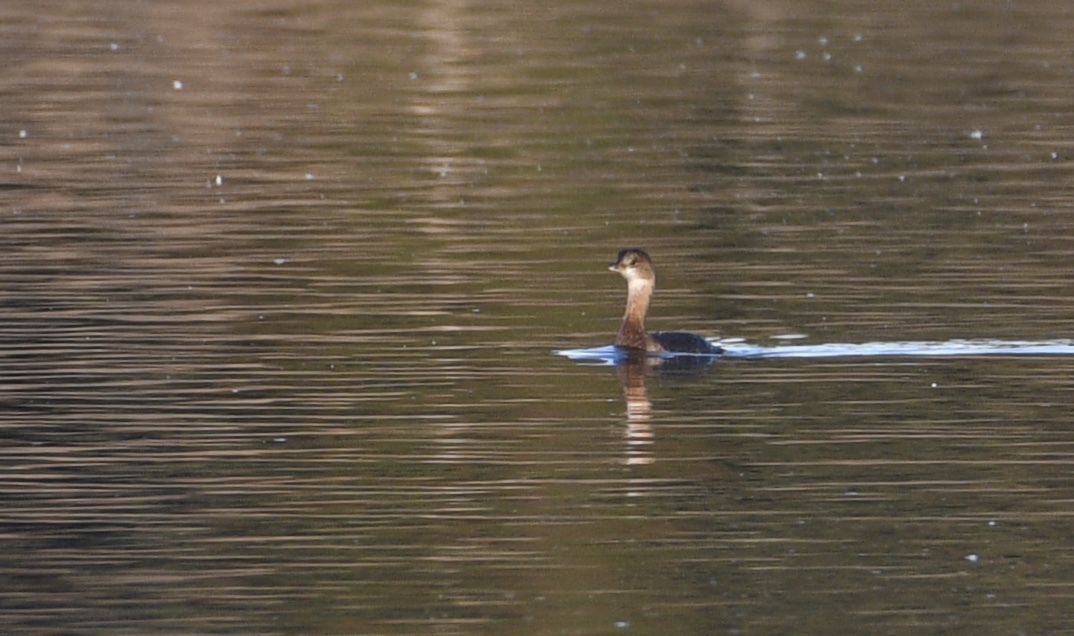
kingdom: Animalia
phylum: Chordata
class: Aves
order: Podicipediformes
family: Podicipedidae
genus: Podilymbus
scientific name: Podilymbus podiceps
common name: Pied-billed grebe
